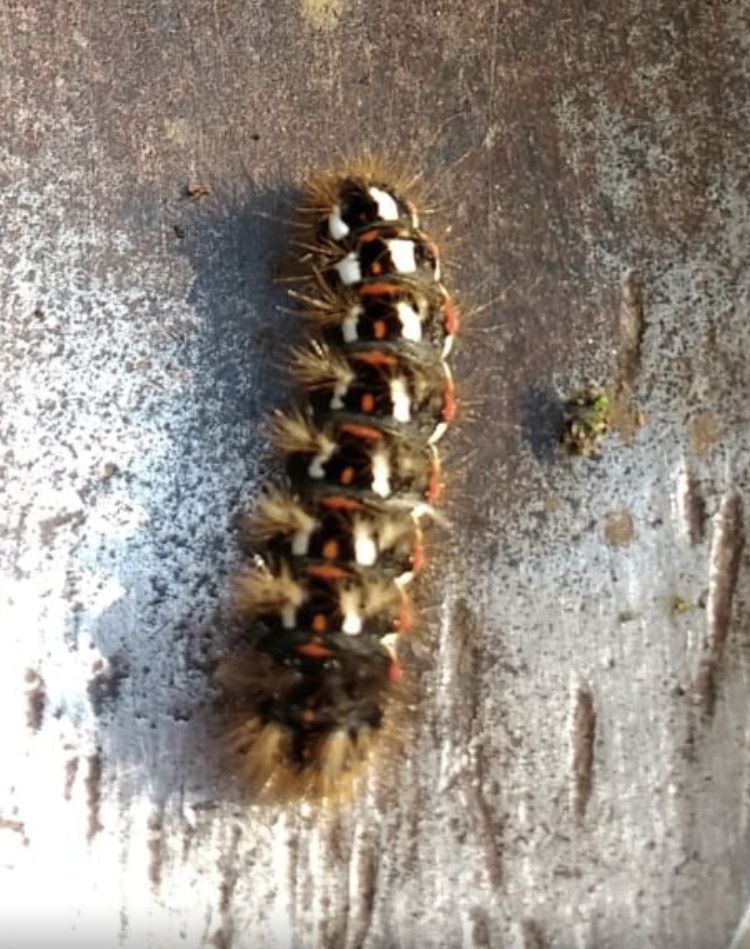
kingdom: Animalia
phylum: Arthropoda
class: Insecta
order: Lepidoptera
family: Noctuidae
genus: Acronicta
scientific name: Acronicta rumicis
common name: Knot grass
